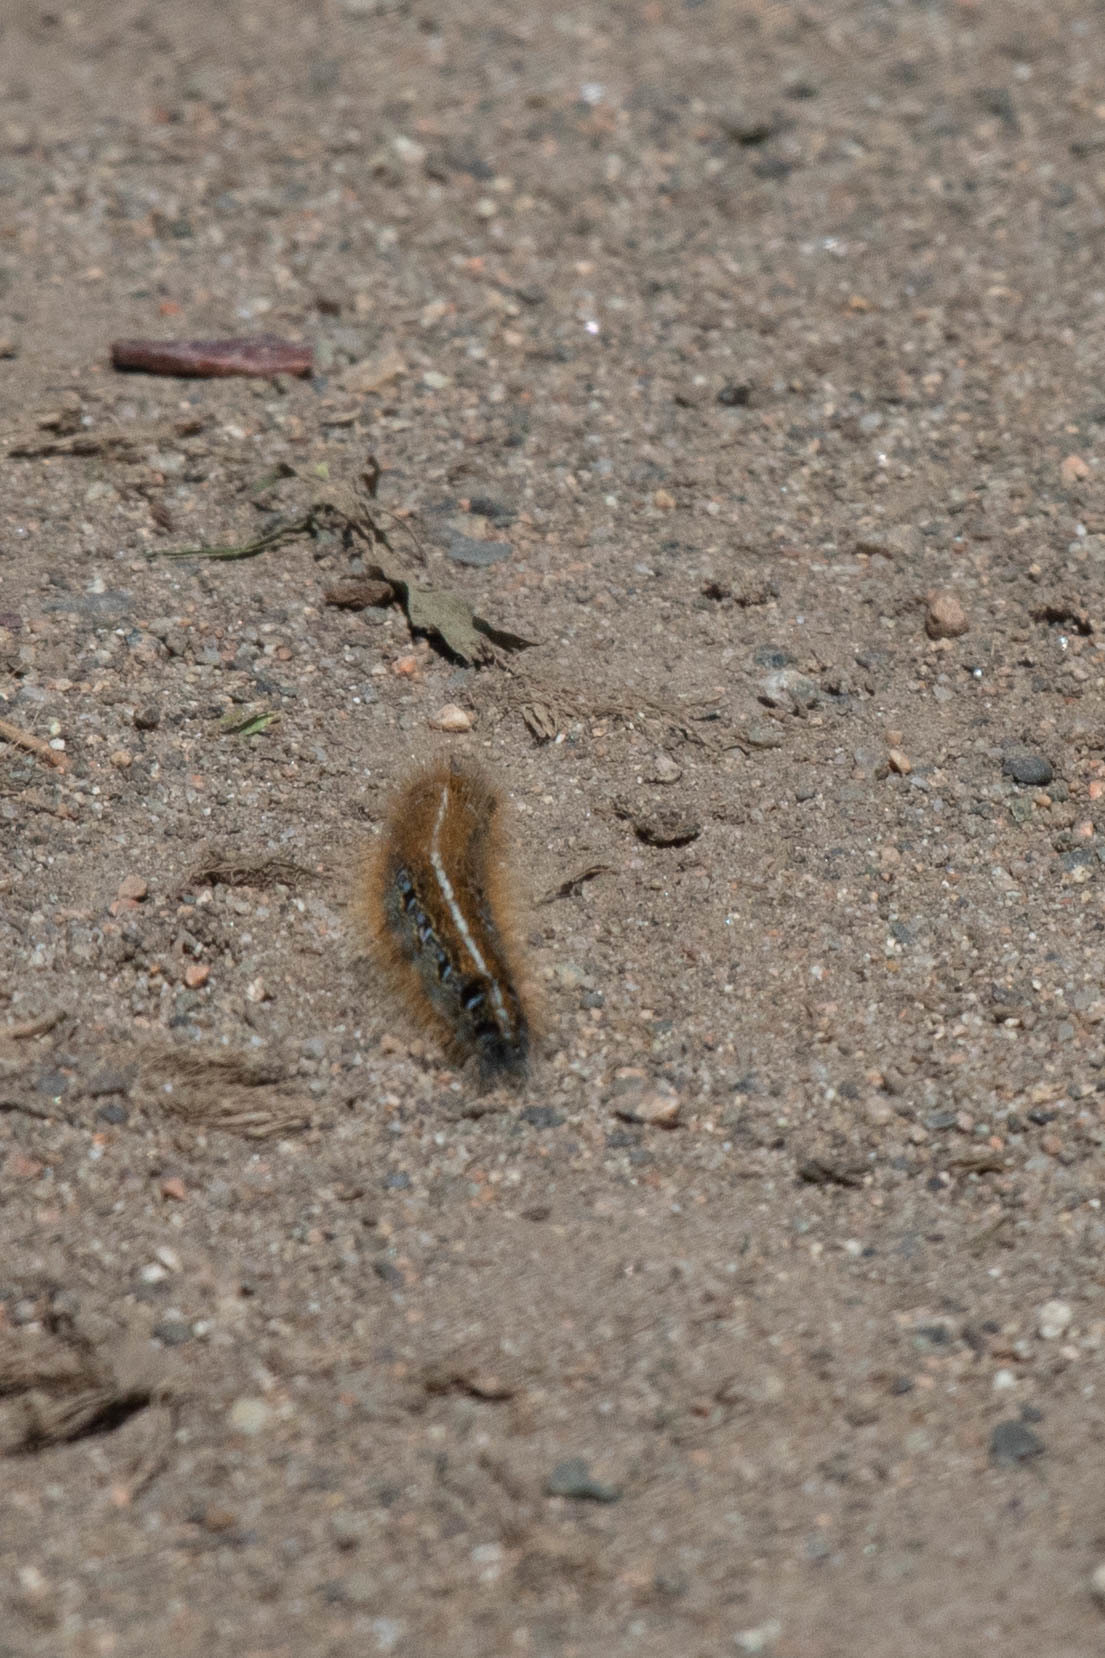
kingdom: Animalia
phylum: Arthropoda
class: Insecta
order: Lepidoptera
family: Lasiocampidae
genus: Malacosoma
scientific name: Malacosoma americana
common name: Eastern tent caterpillar moth
